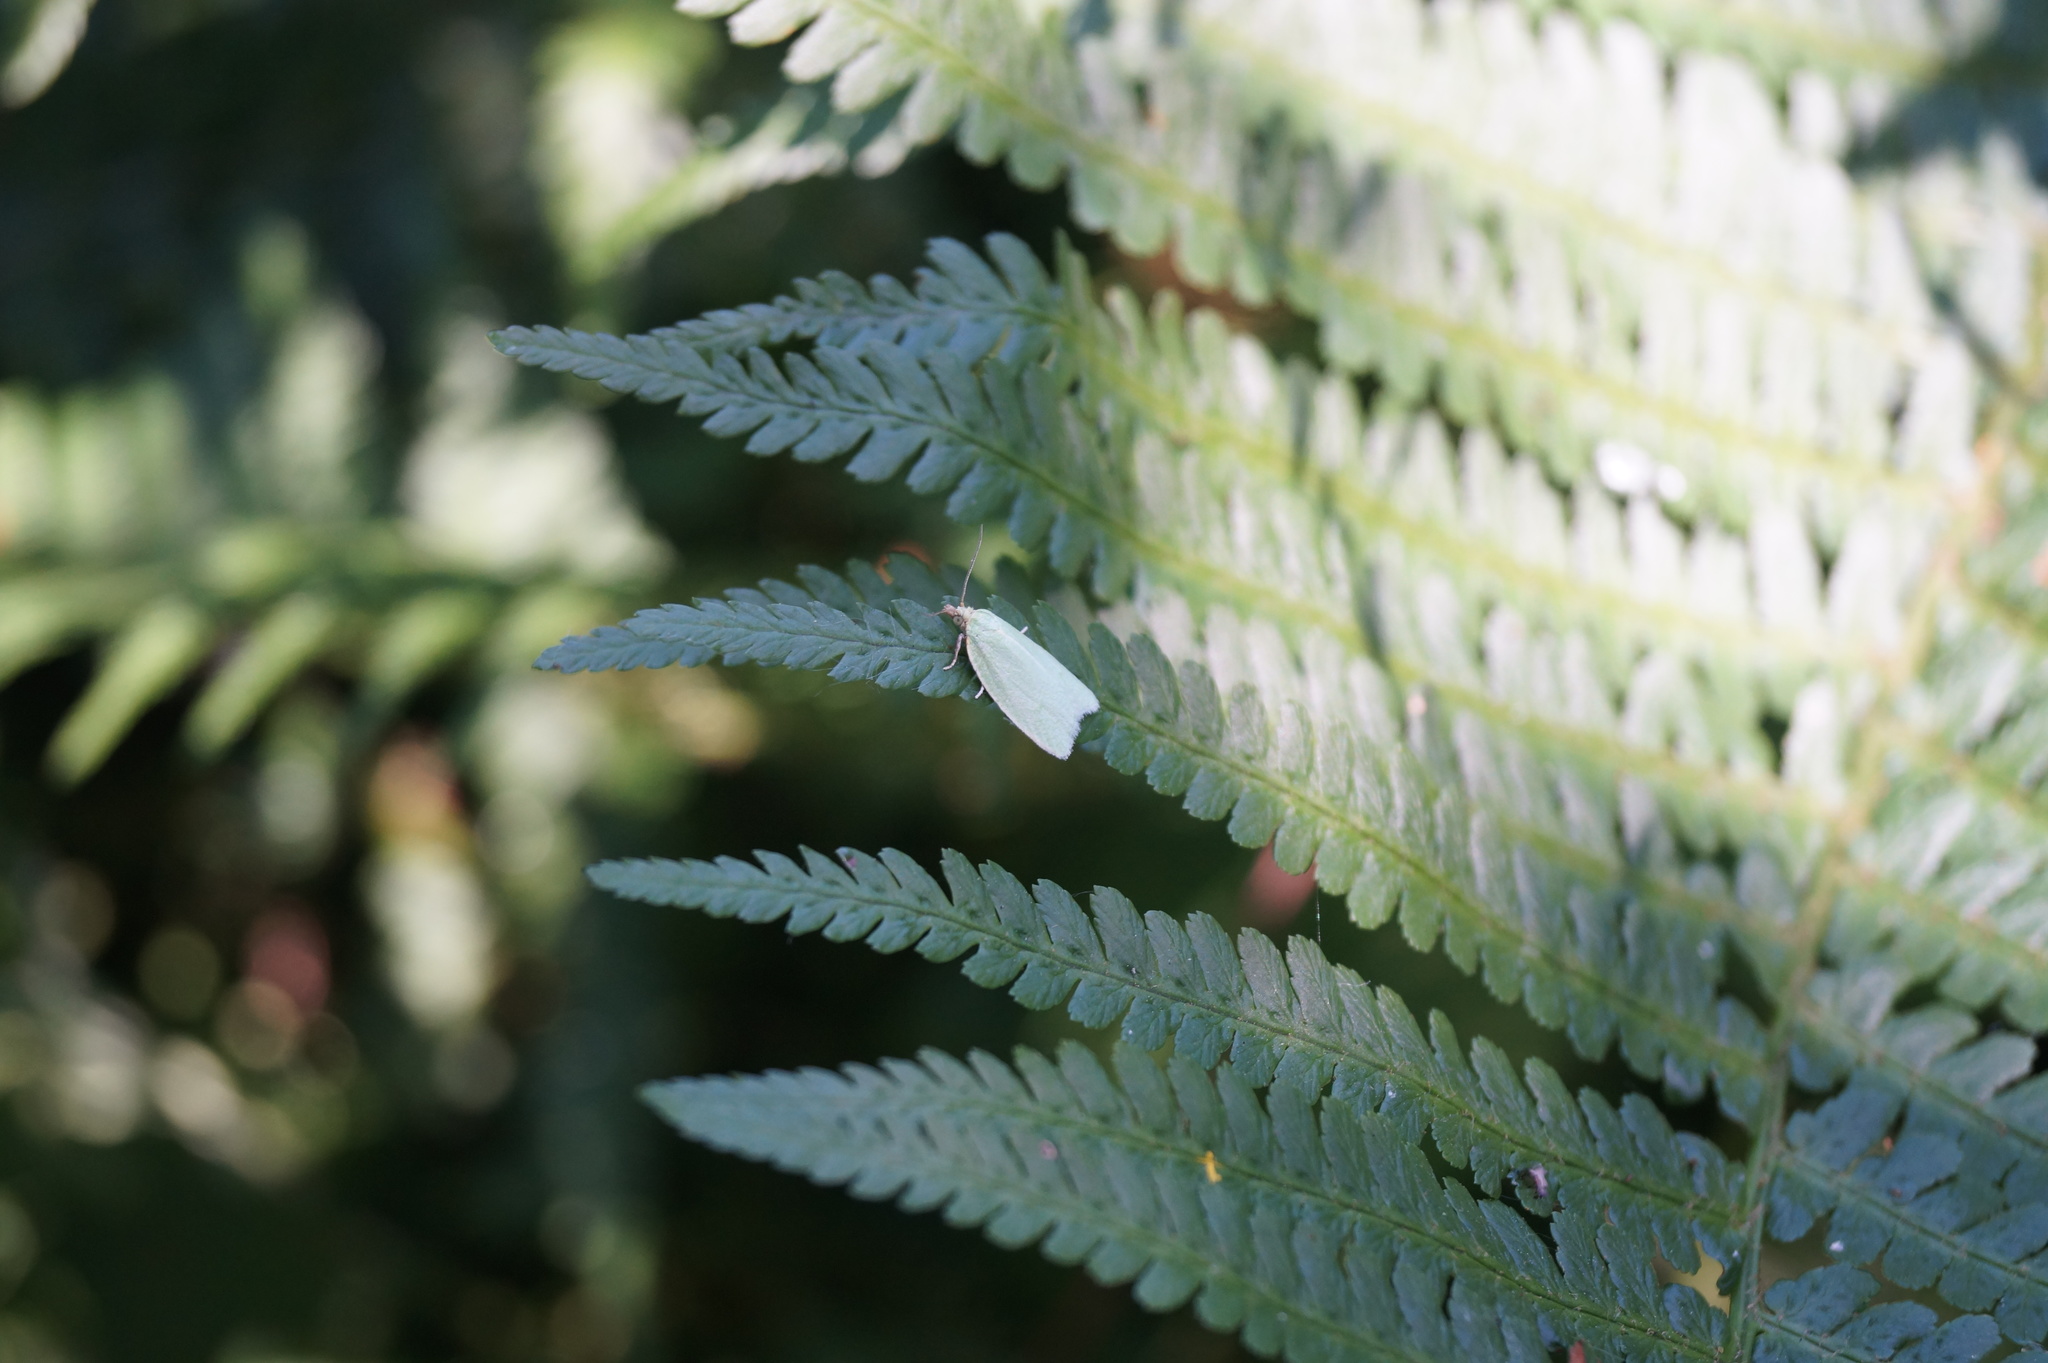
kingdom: Animalia
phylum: Arthropoda
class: Insecta
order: Lepidoptera
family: Tortricidae
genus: Tortrix
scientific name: Tortrix viridana
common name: Green oak tortrix
